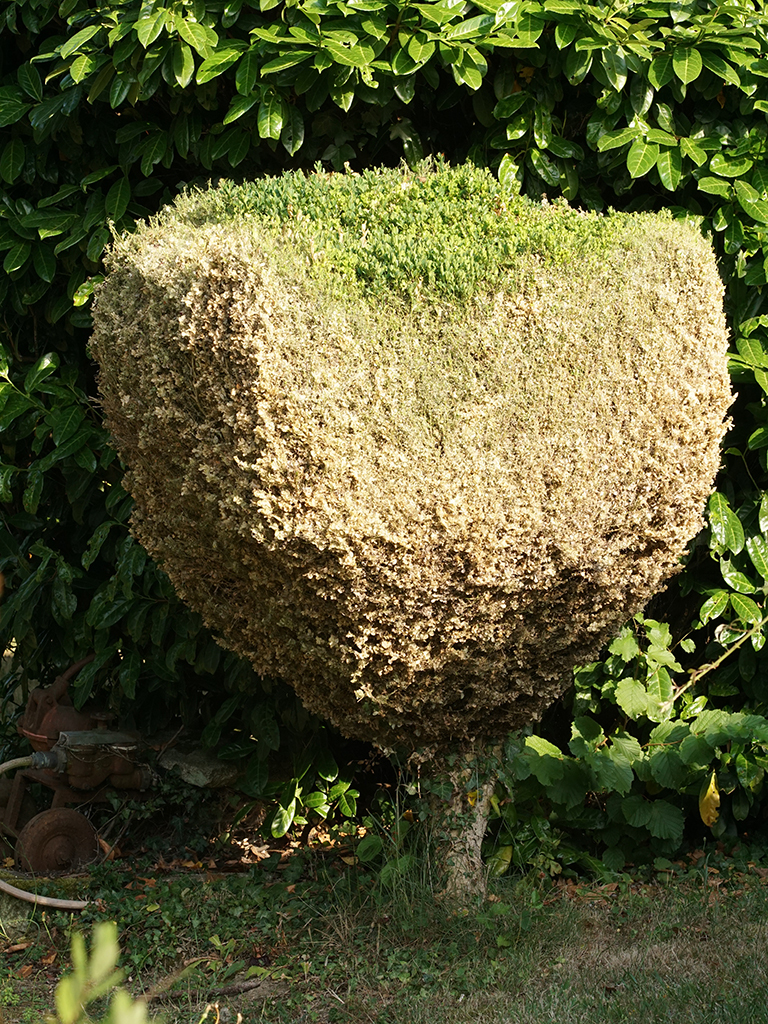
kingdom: Animalia
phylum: Arthropoda
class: Insecta
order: Lepidoptera
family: Crambidae
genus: Cydalima
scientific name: Cydalima perspectalis
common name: Box tree moth
